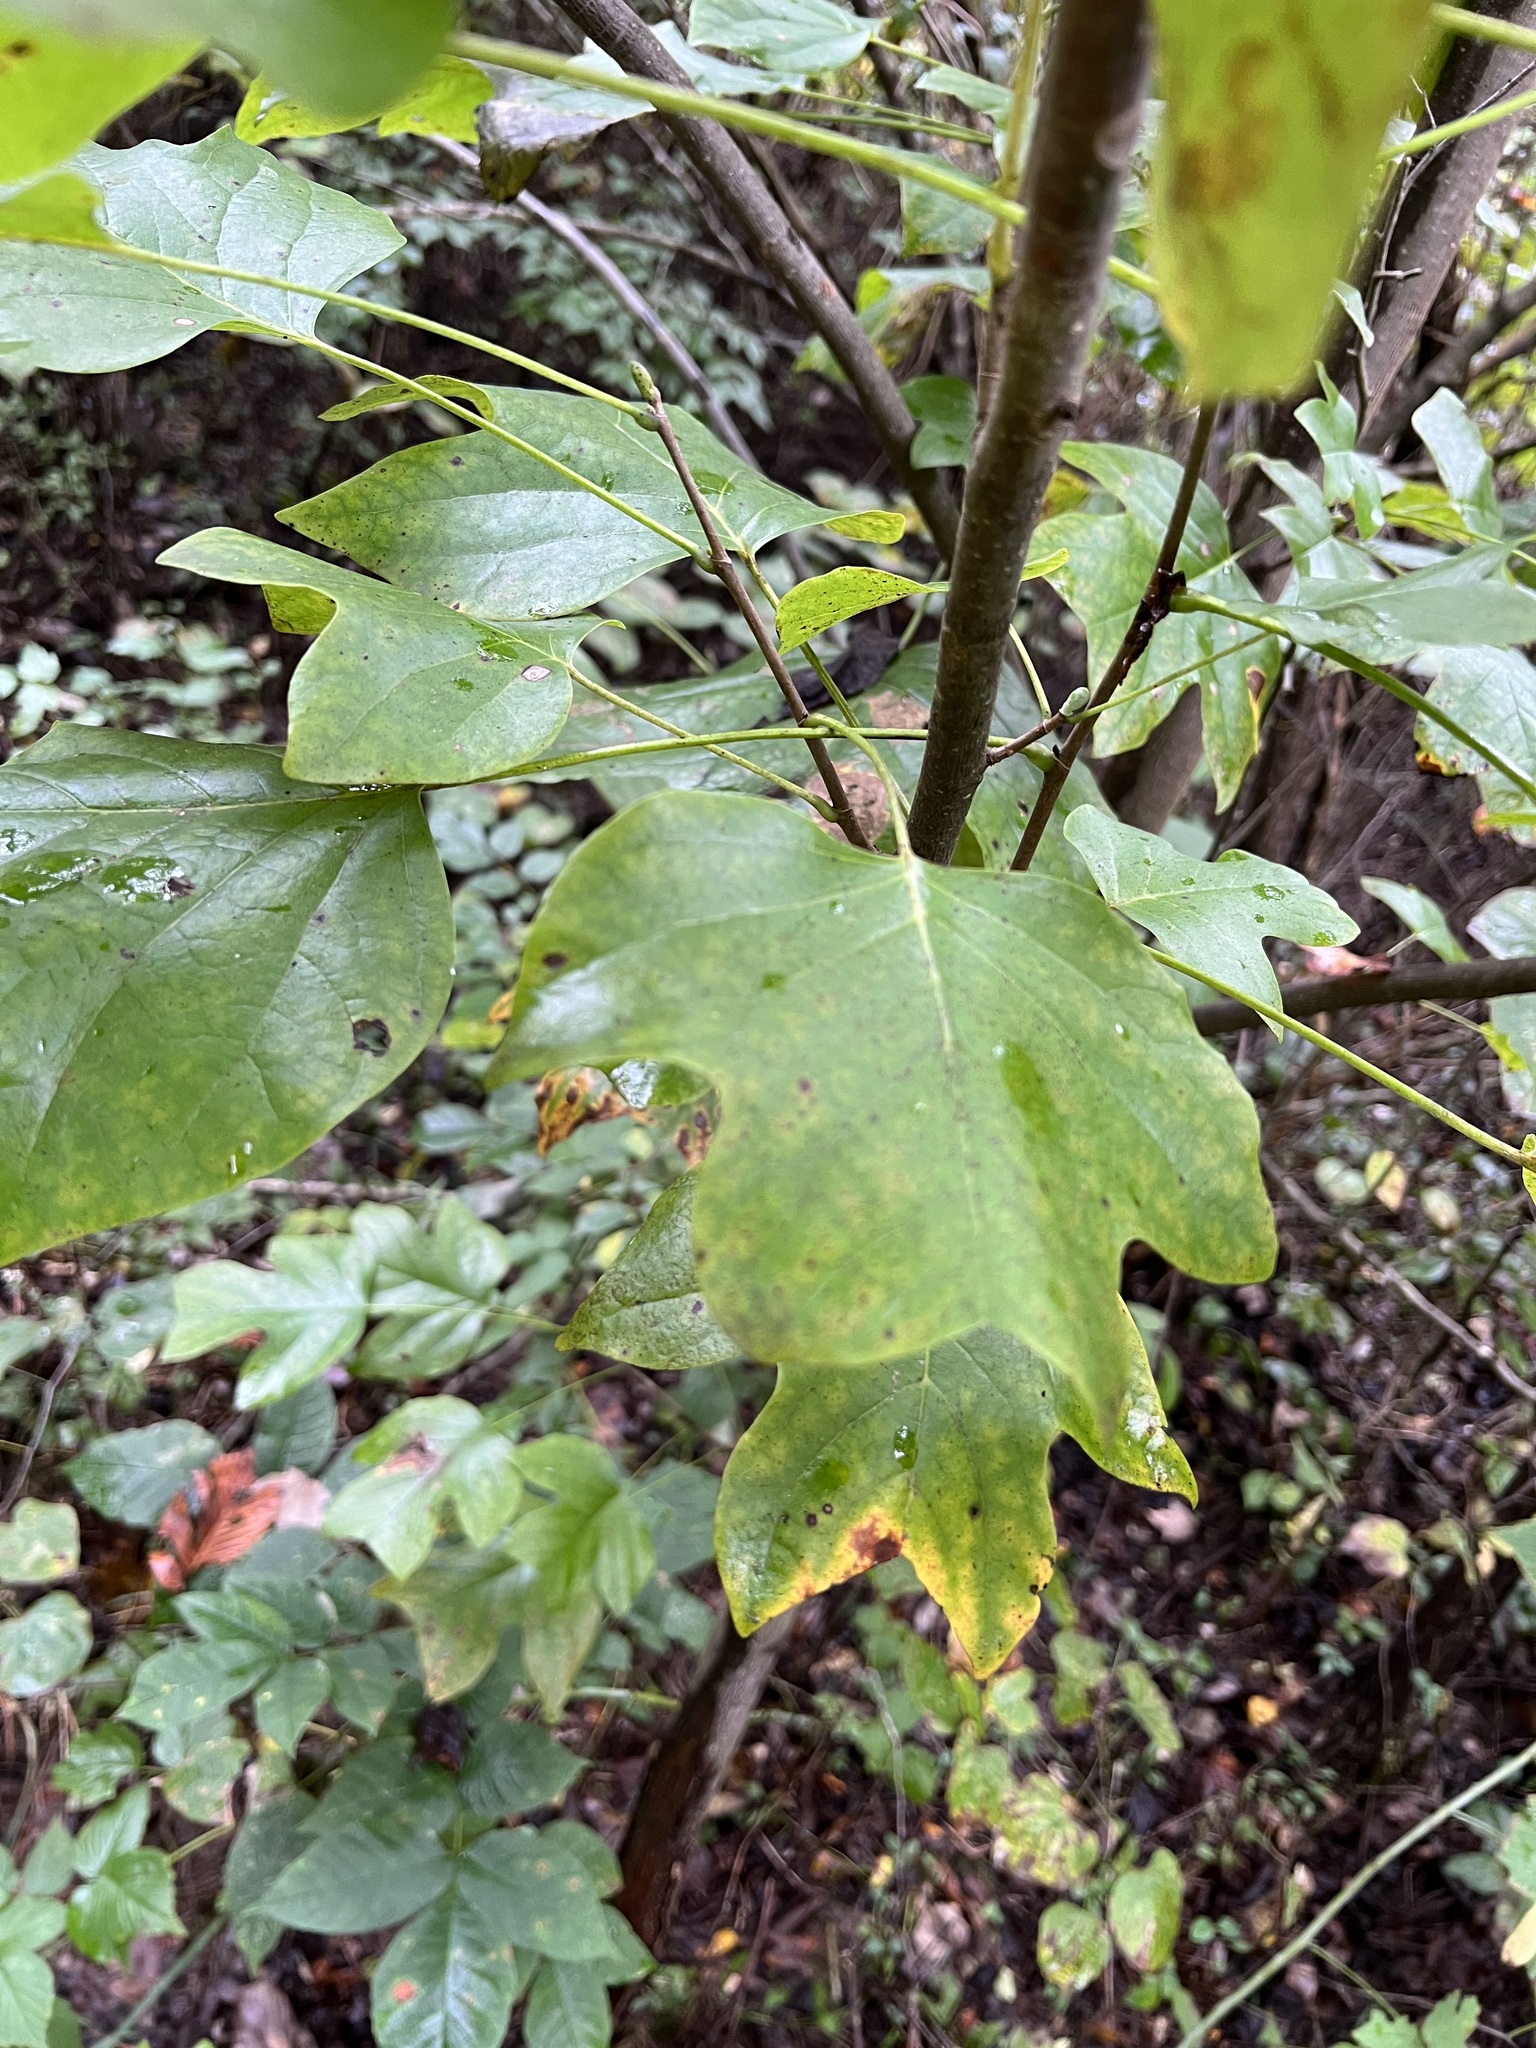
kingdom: Plantae
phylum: Tracheophyta
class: Magnoliopsida
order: Magnoliales
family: Magnoliaceae
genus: Liriodendron
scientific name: Liriodendron tulipifera
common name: Tulip tree
